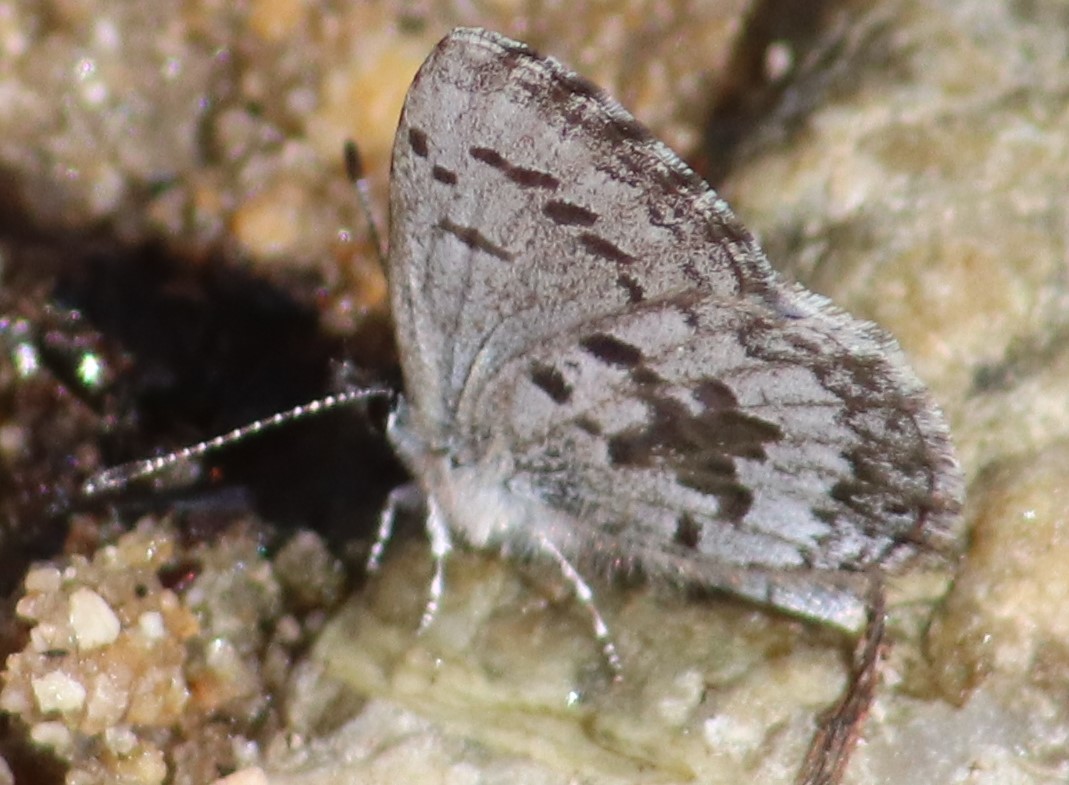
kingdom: Animalia
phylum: Arthropoda
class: Insecta
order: Lepidoptera
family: Lycaenidae
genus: Celastrina
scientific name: Celastrina lucia
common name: Lucia azure
